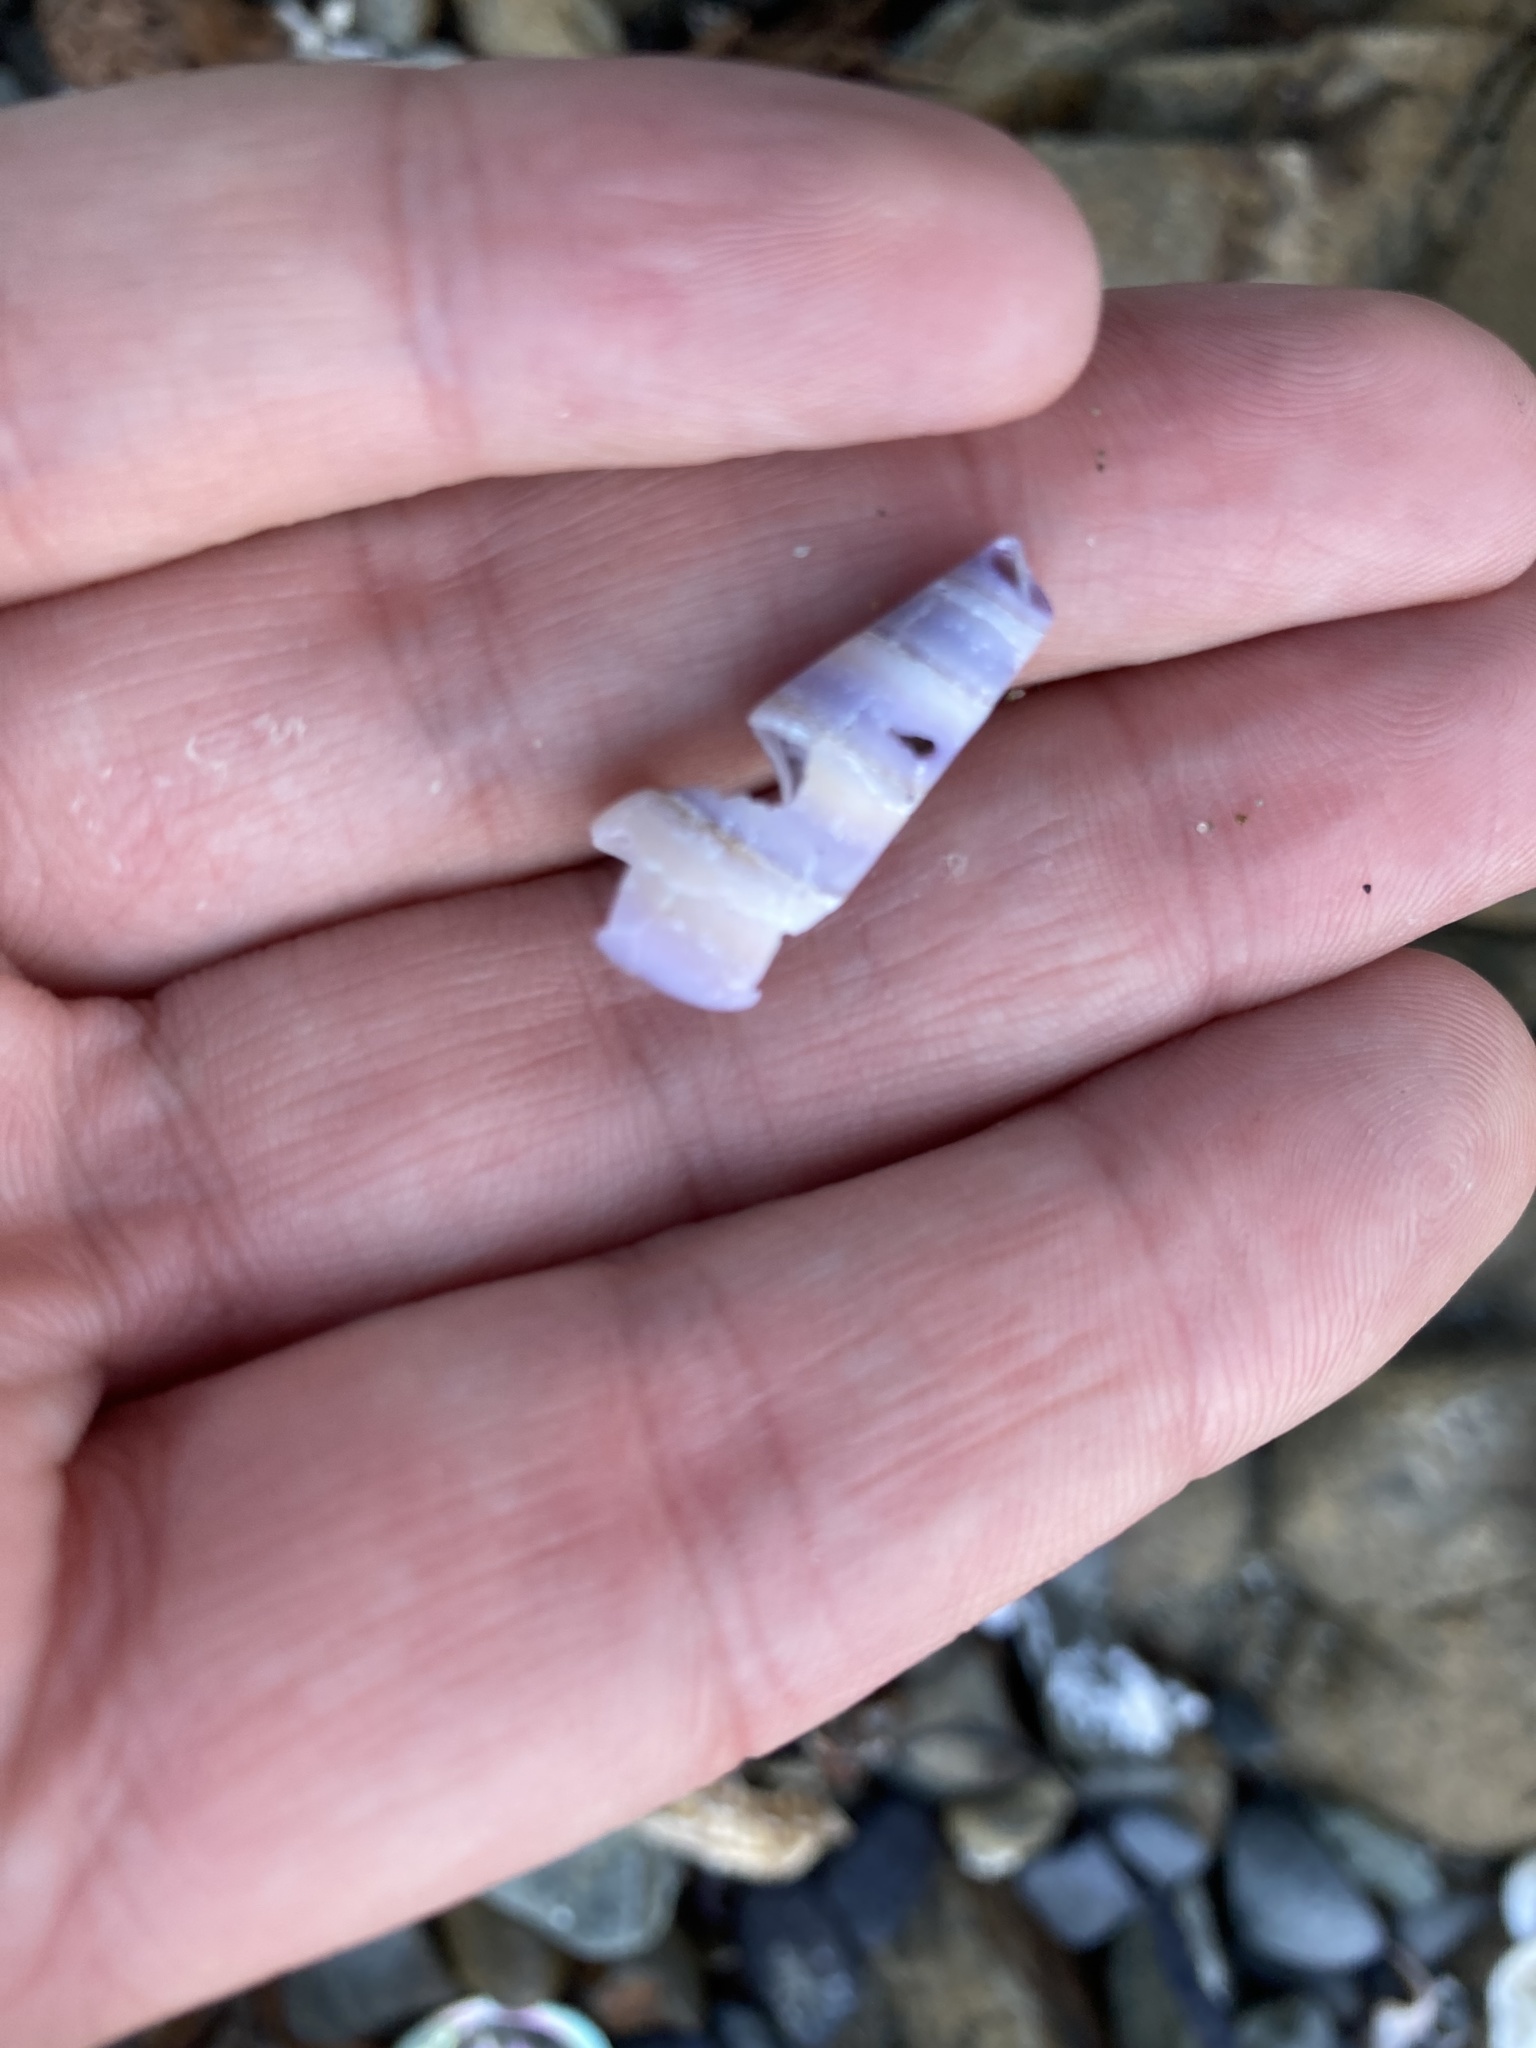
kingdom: Animalia
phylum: Mollusca
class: Gastropoda
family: Turritellidae
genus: Maoricolpus
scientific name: Maoricolpus roseus
